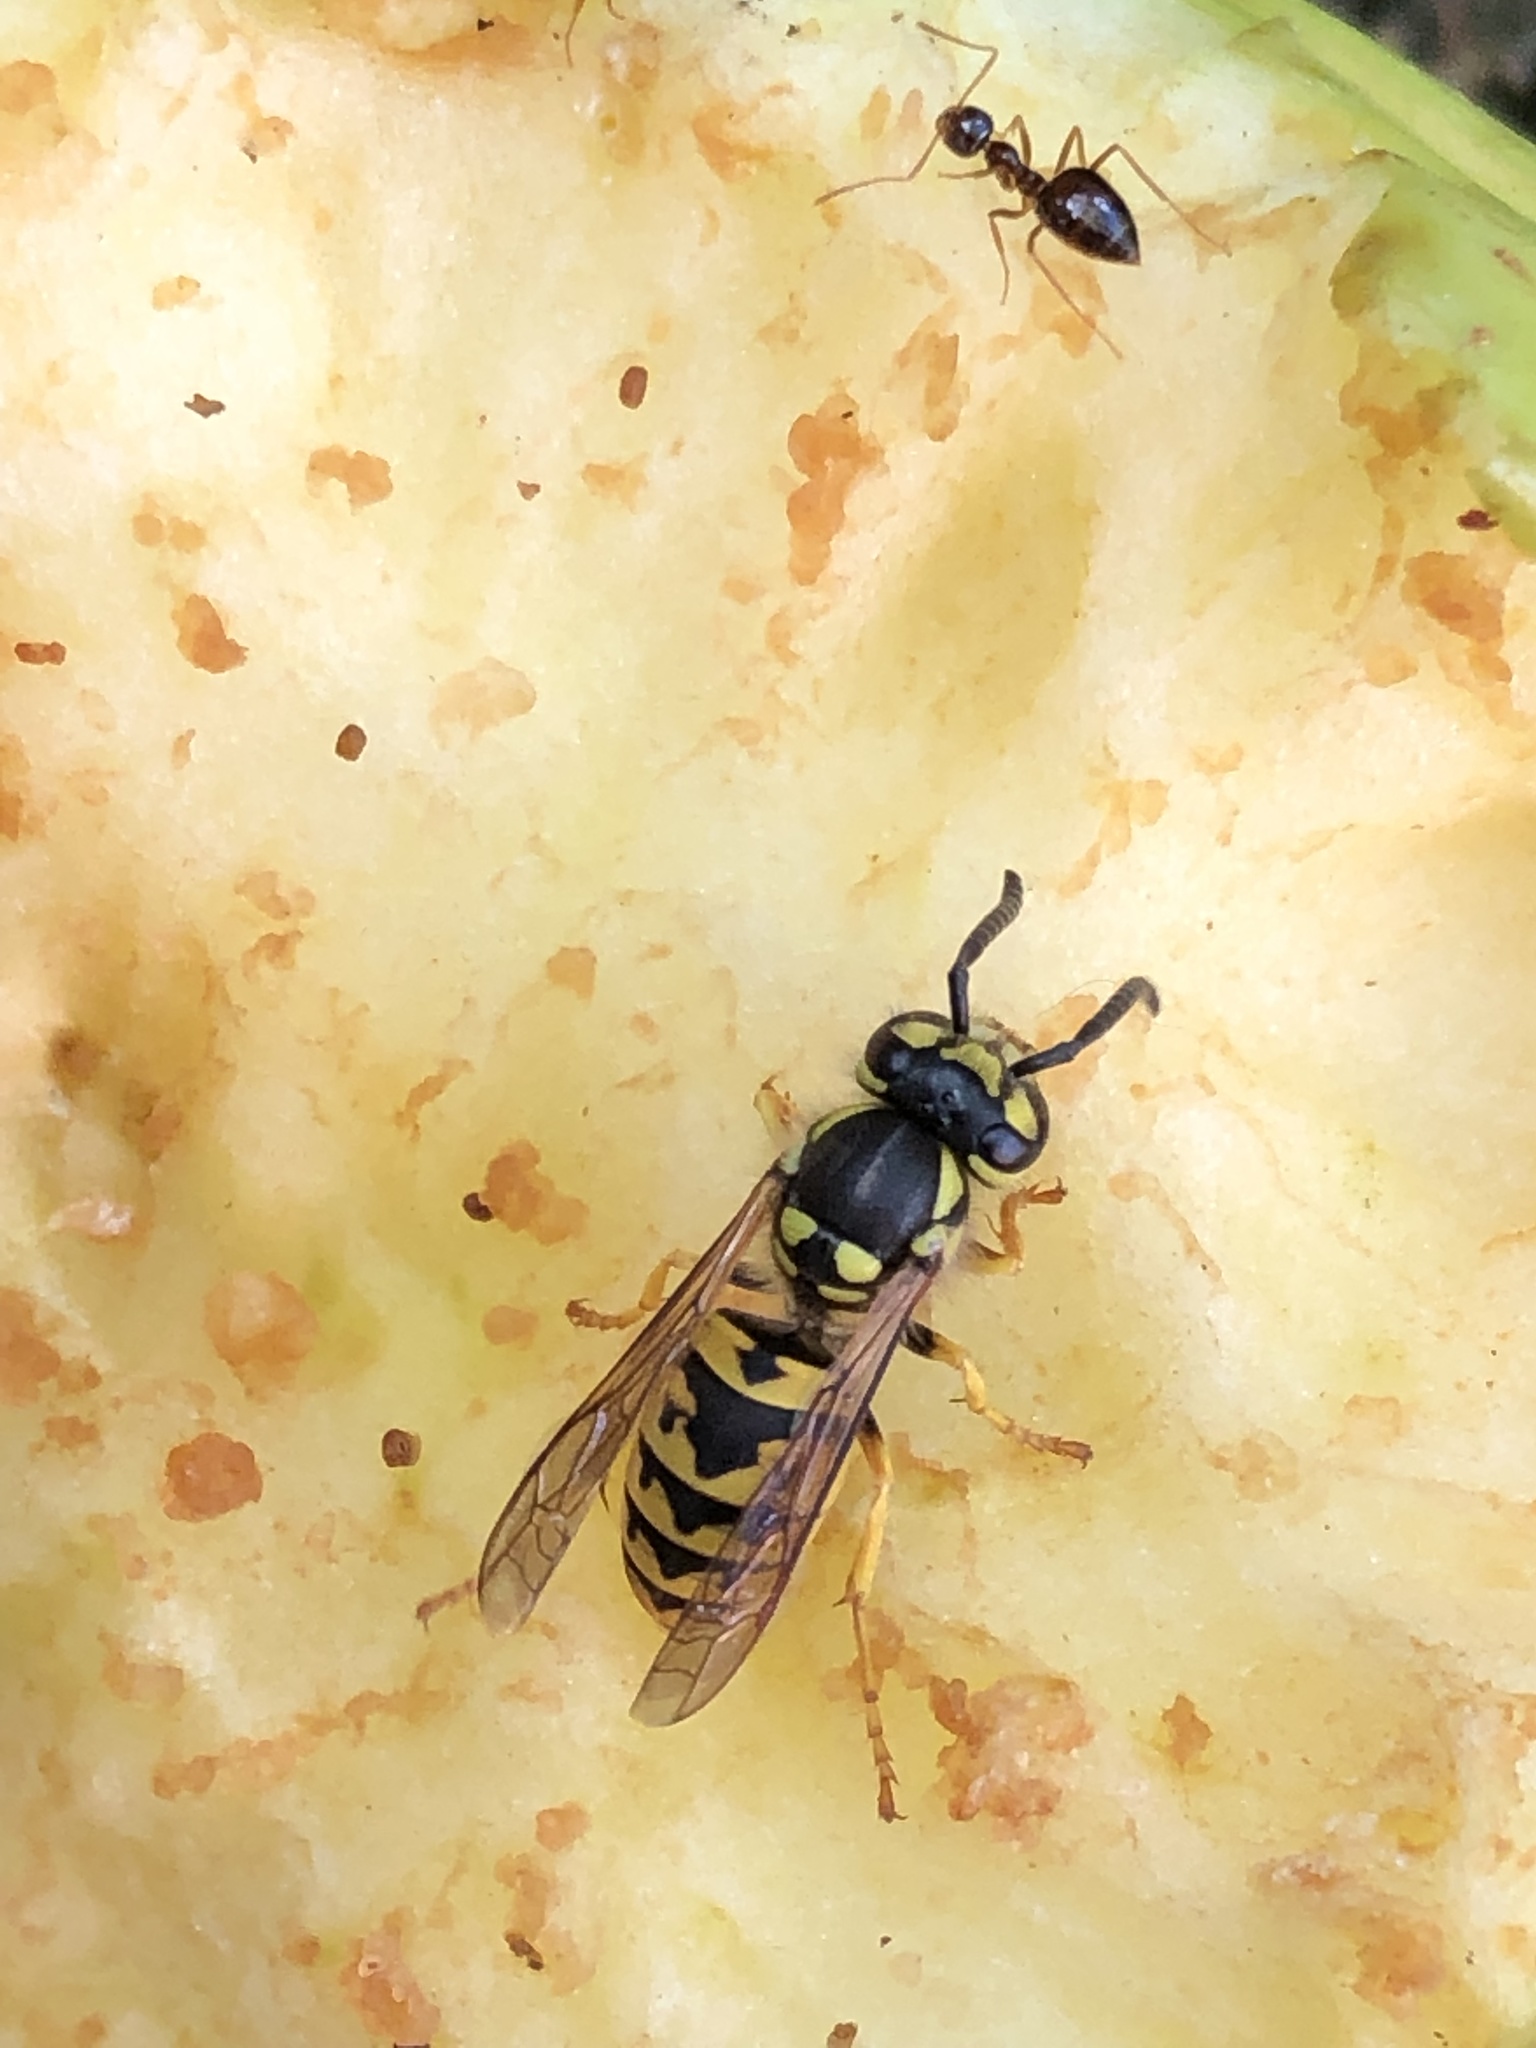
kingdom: Animalia
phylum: Arthropoda
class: Insecta
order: Hymenoptera
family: Vespidae
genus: Vespula
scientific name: Vespula germanica
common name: German wasp
